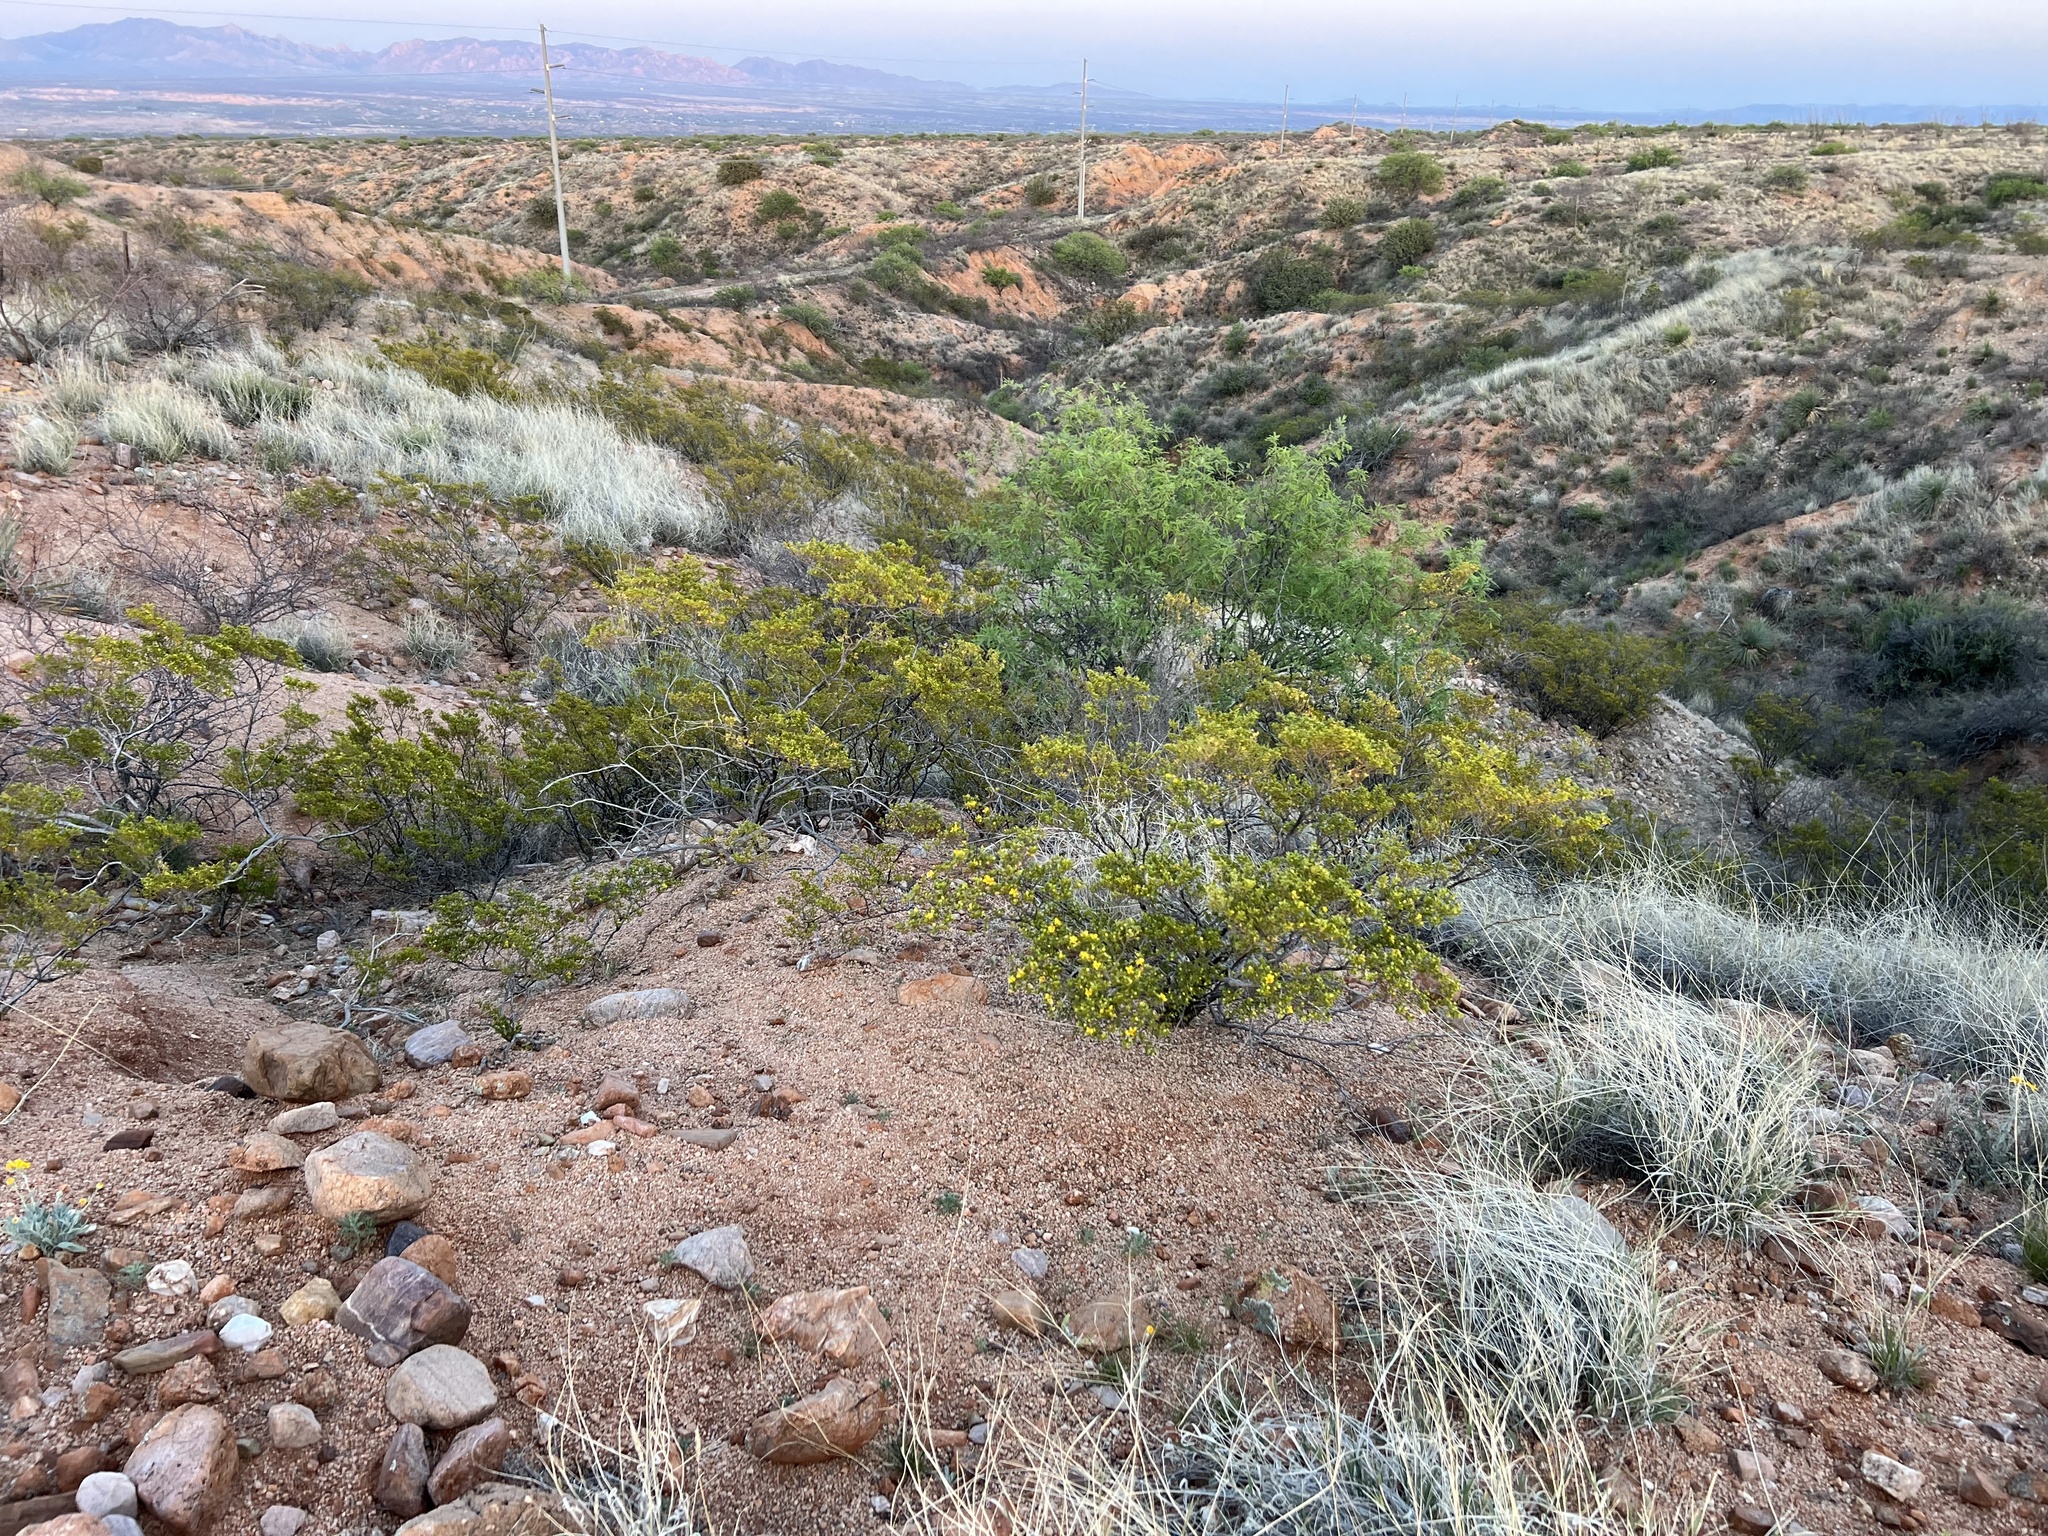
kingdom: Plantae
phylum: Tracheophyta
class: Magnoliopsida
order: Zygophyllales
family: Zygophyllaceae
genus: Larrea
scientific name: Larrea tridentata
